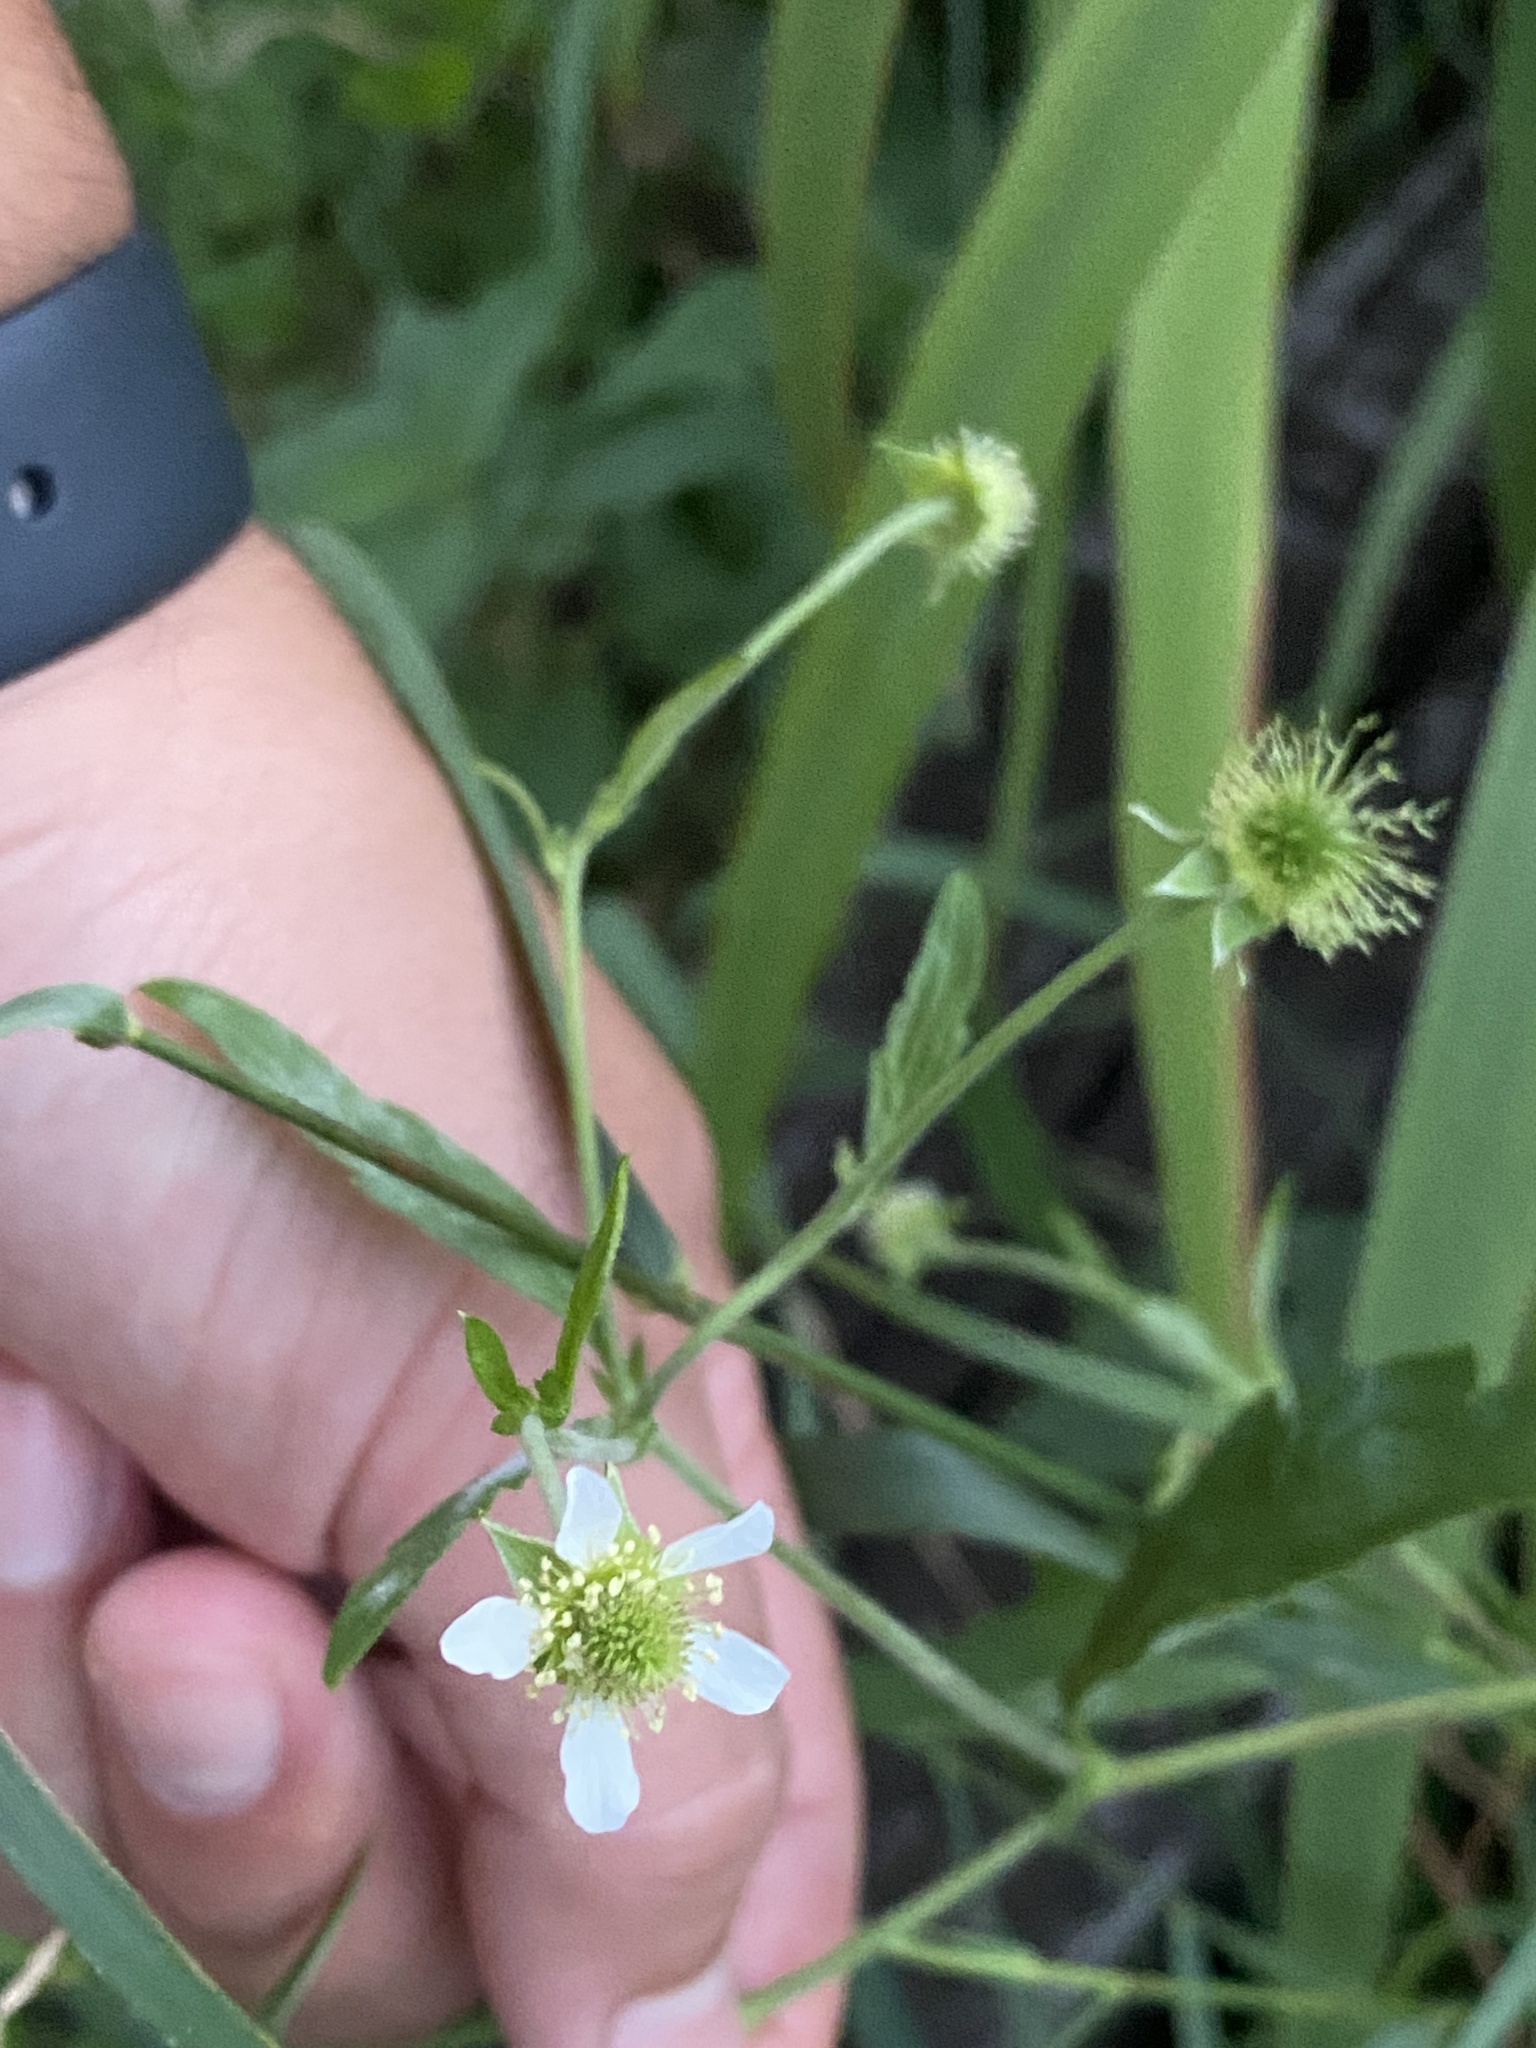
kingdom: Plantae
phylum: Tracheophyta
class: Magnoliopsida
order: Rosales
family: Rosaceae
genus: Geum
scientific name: Geum canadense
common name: White avens
